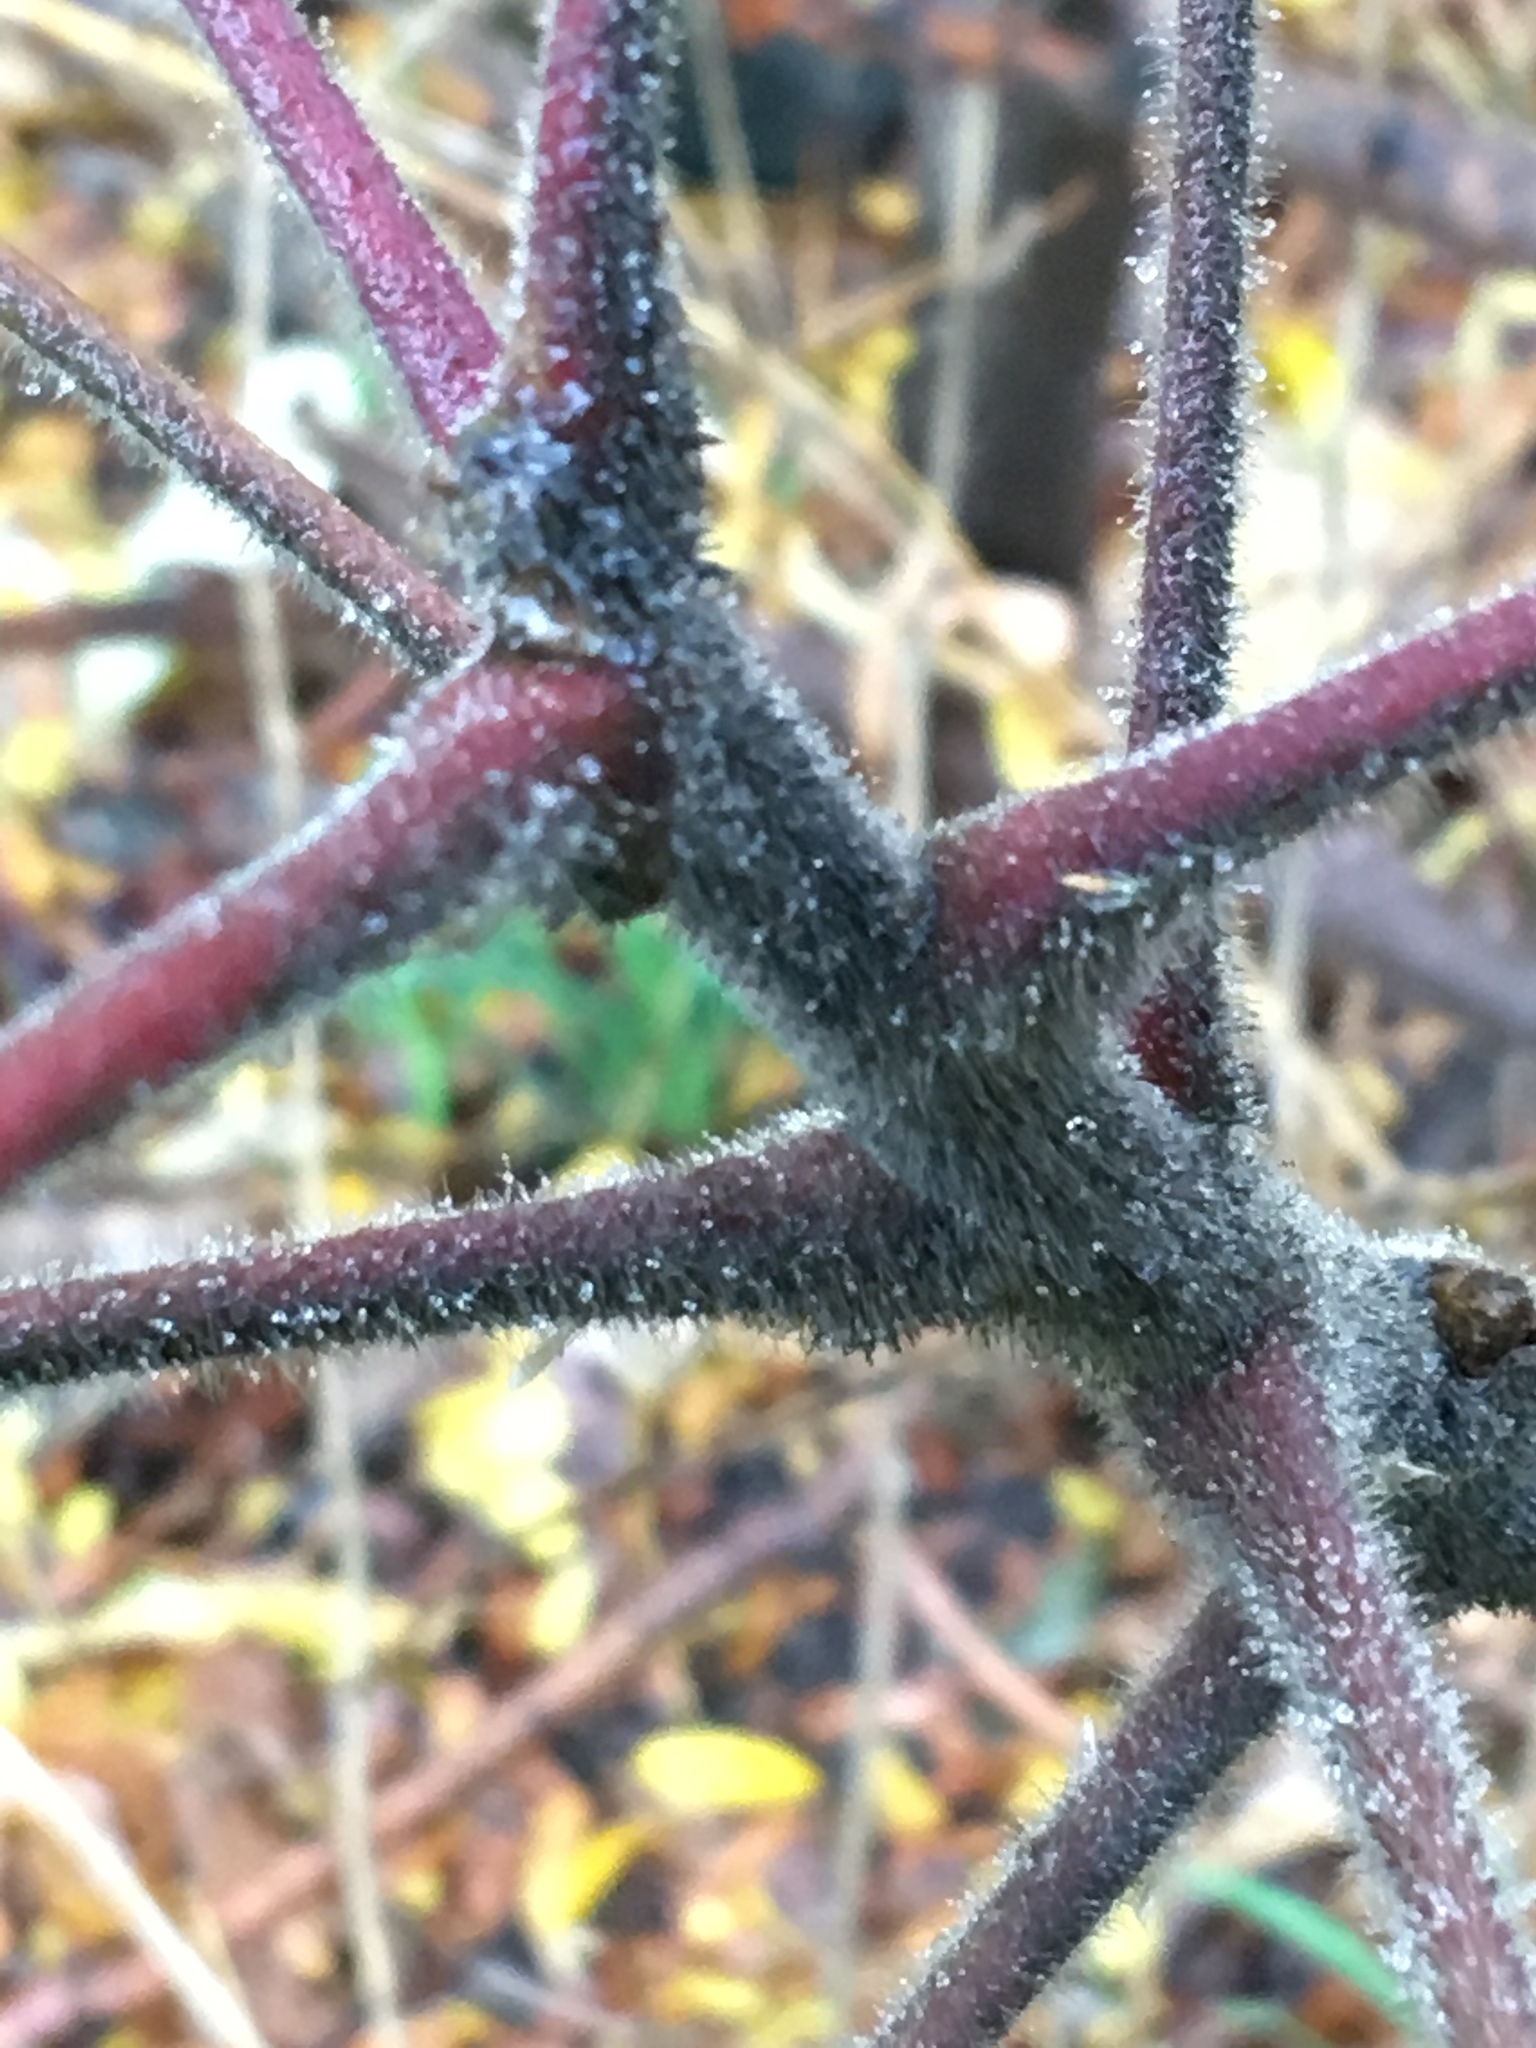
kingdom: Plantae
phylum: Tracheophyta
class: Magnoliopsida
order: Sapindales
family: Anacardiaceae
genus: Rhus
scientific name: Rhus typhina
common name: Staghorn sumac
